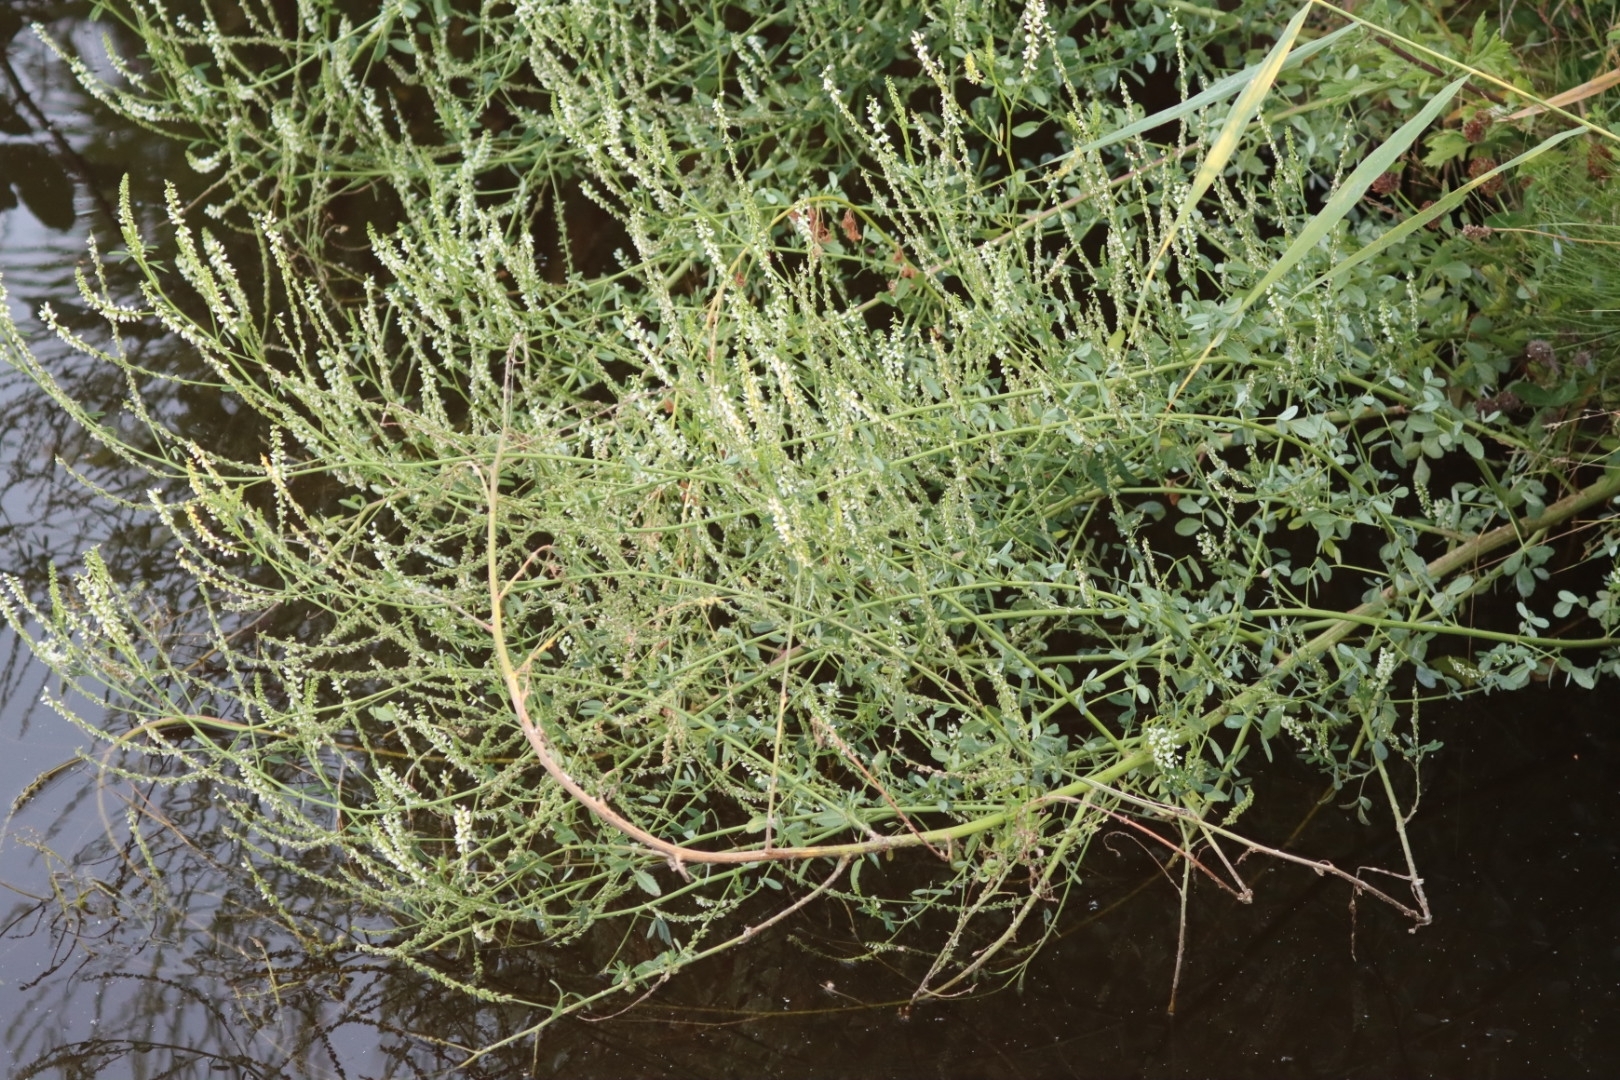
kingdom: Plantae
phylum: Tracheophyta
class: Magnoliopsida
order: Fabales
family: Fabaceae
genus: Melilotus
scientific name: Melilotus albus
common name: White melilot
